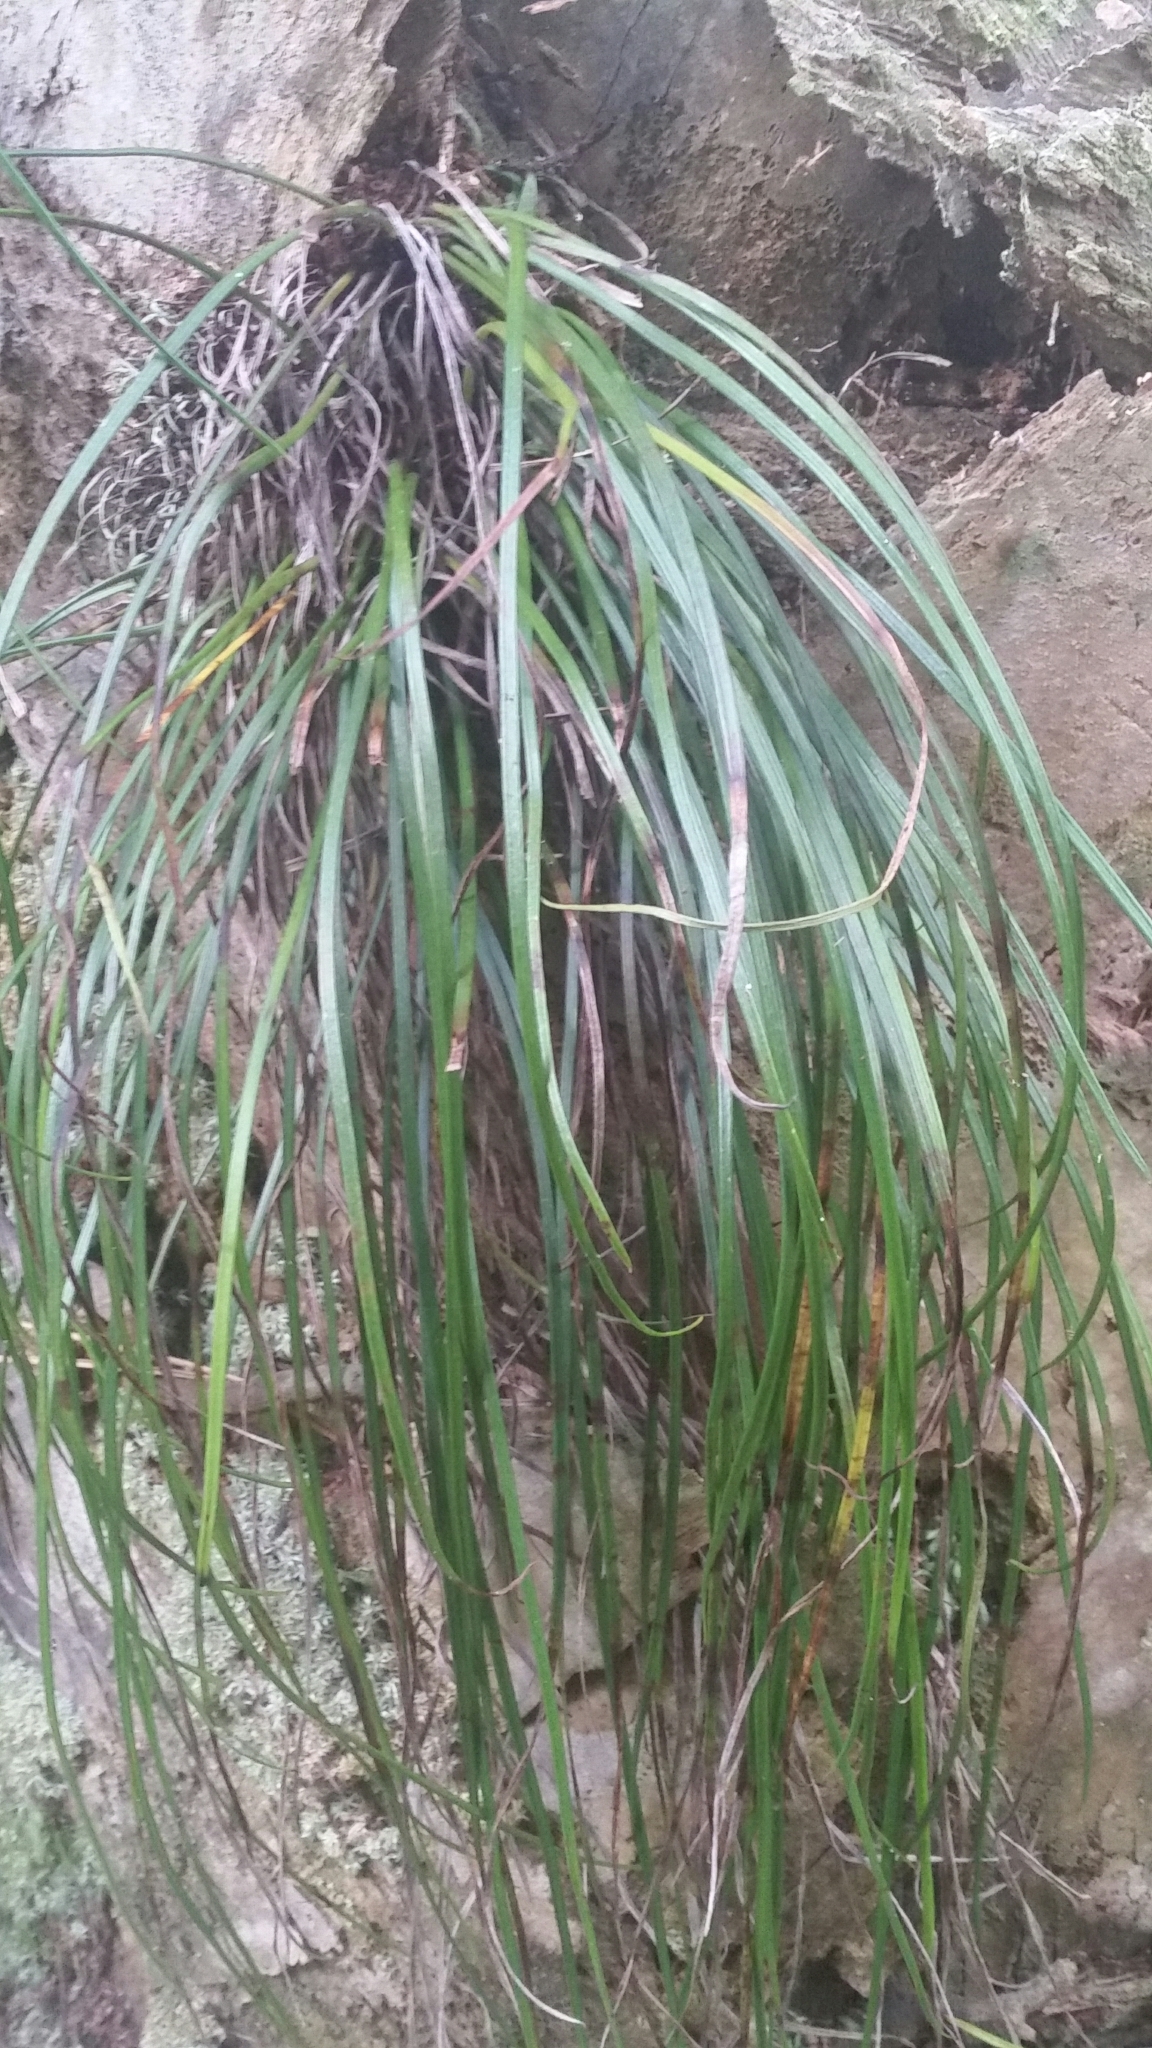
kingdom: Plantae
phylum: Tracheophyta
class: Polypodiopsida
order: Polypodiales
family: Pteridaceae
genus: Vittaria
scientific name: Vittaria lineata
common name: Shoestring fern
